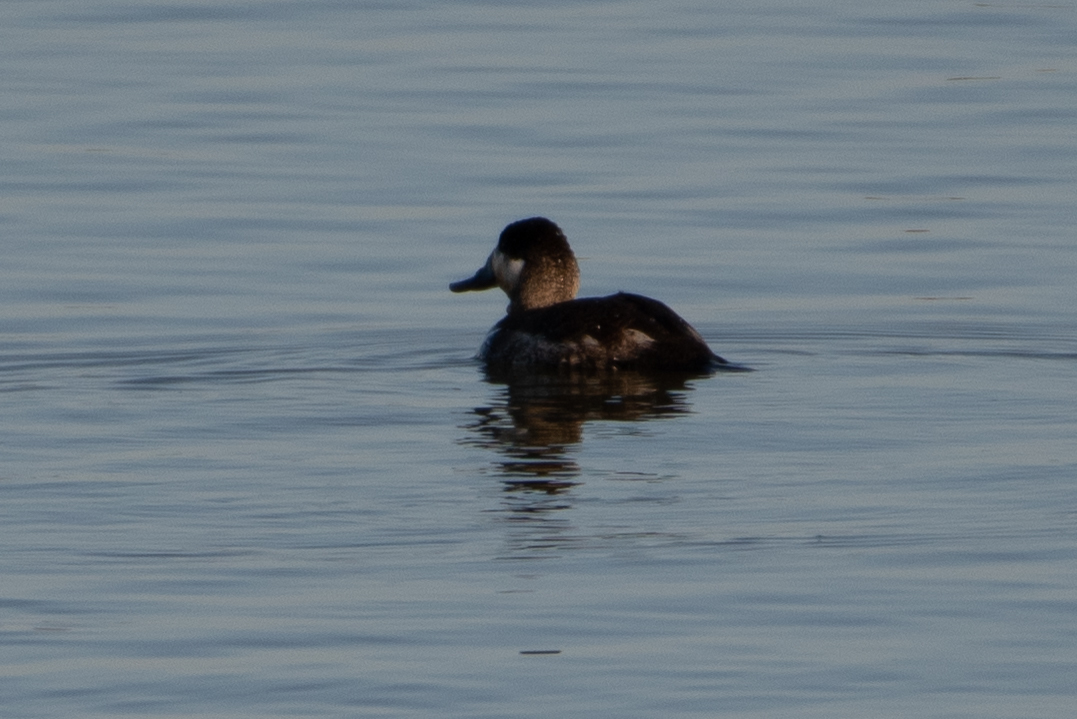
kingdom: Animalia
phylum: Chordata
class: Aves
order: Anseriformes
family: Anatidae
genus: Oxyura
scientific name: Oxyura jamaicensis
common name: Ruddy duck
